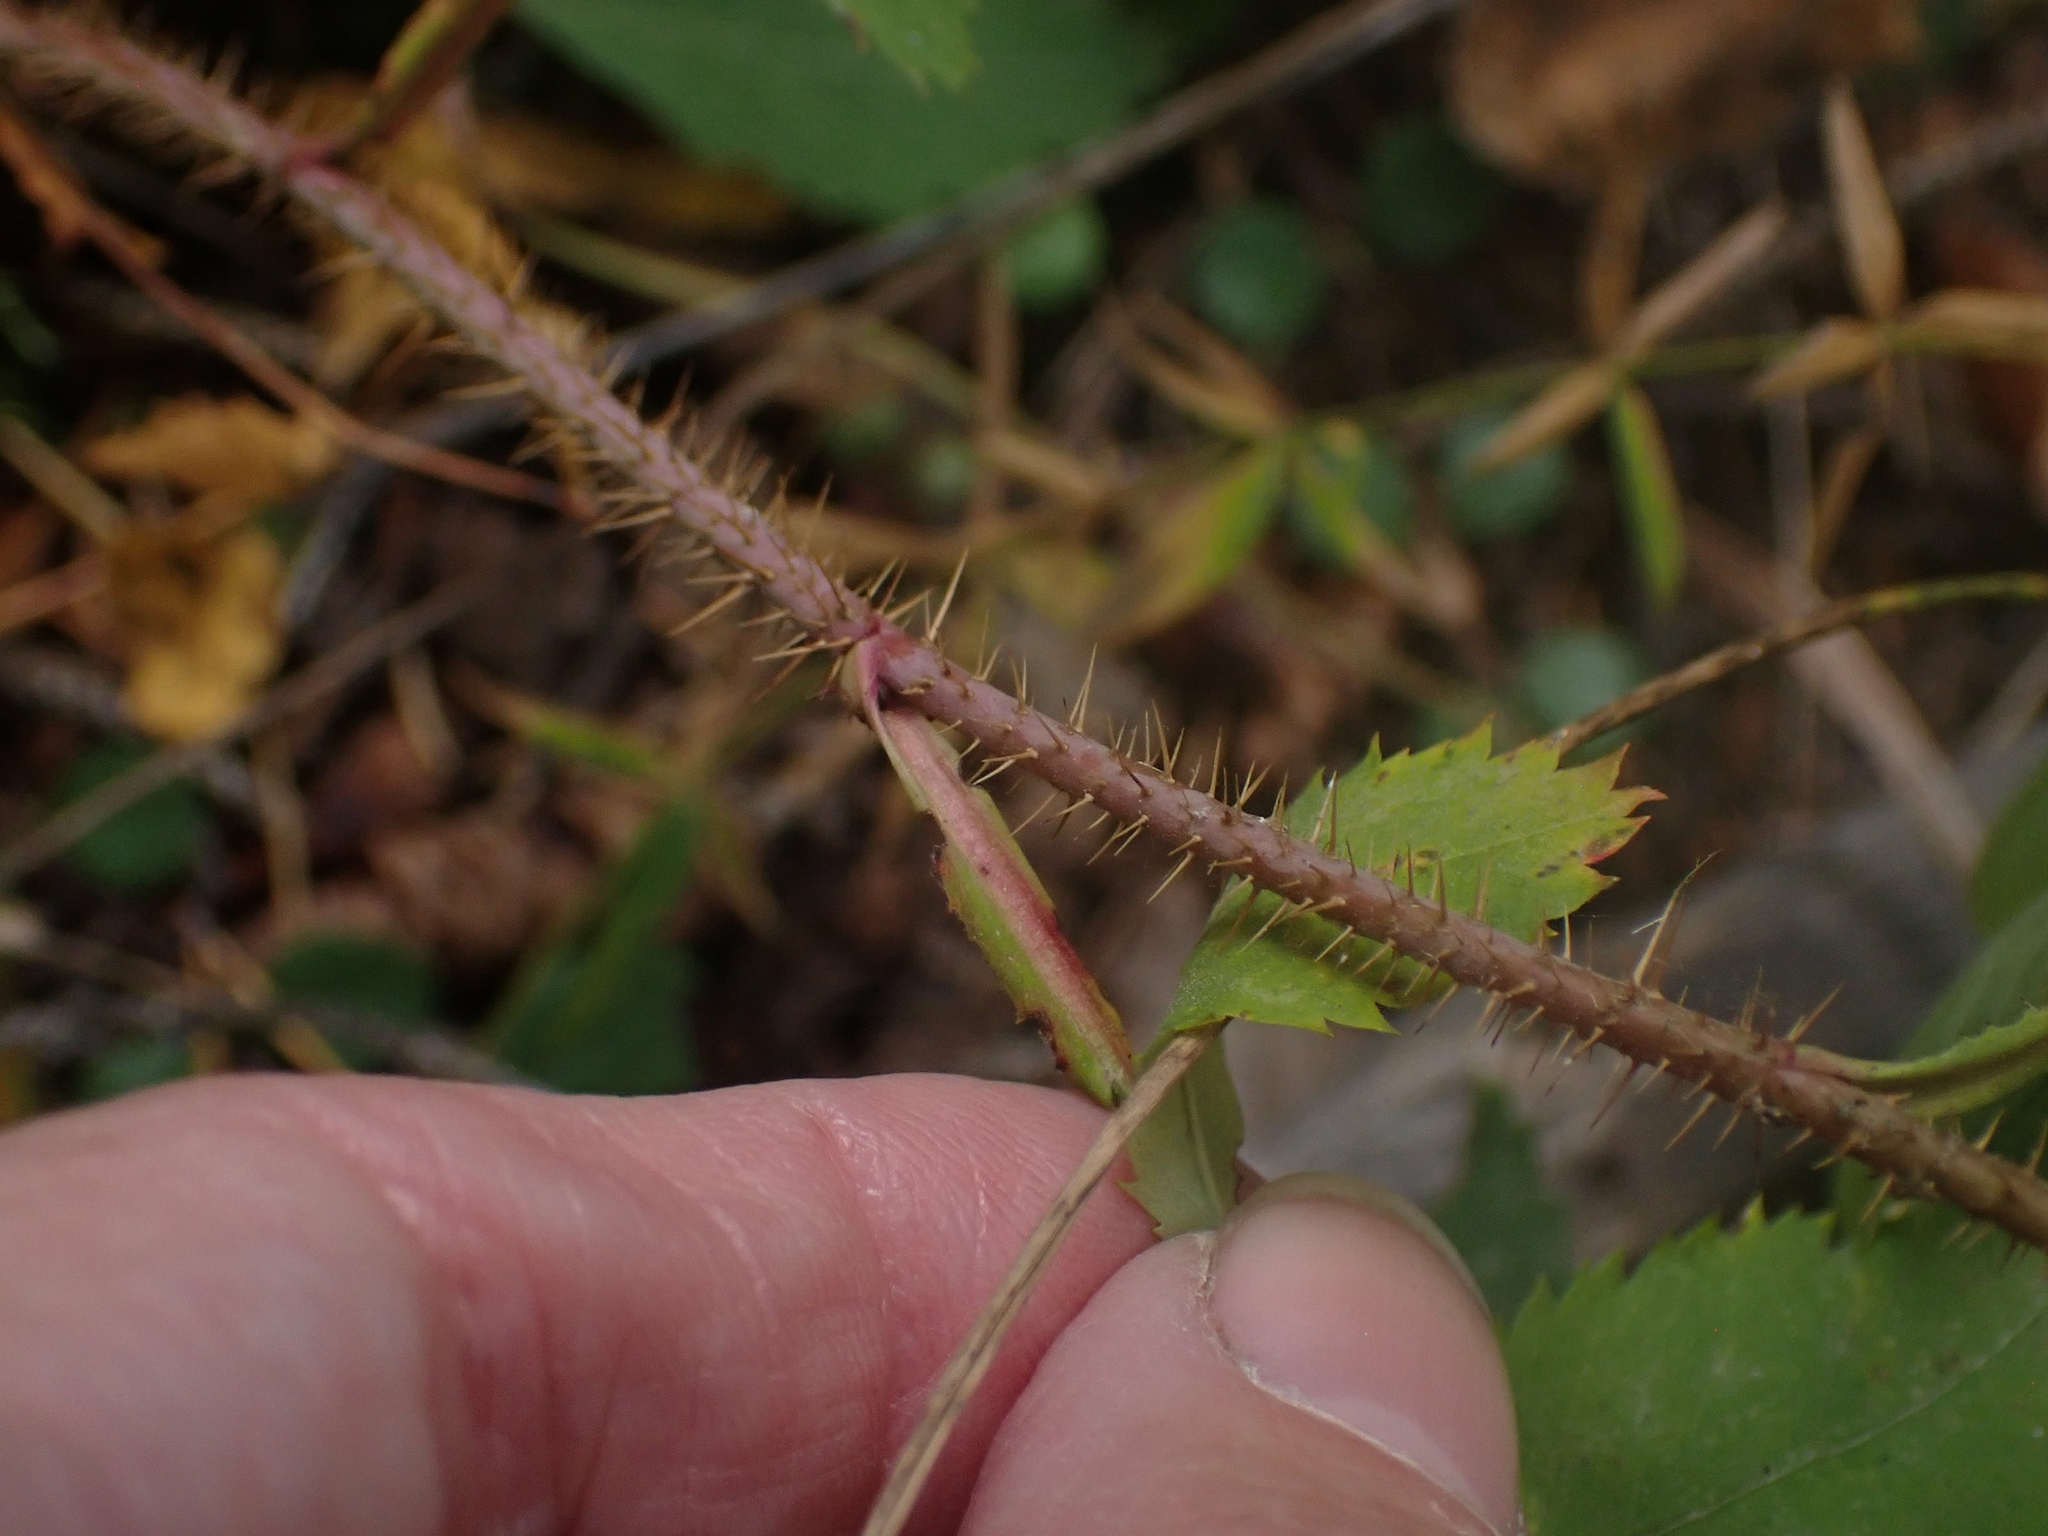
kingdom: Plantae
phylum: Tracheophyta
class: Magnoliopsida
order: Rosales
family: Rosaceae
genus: Rosa
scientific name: Rosa acicularis
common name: Prickly rose
